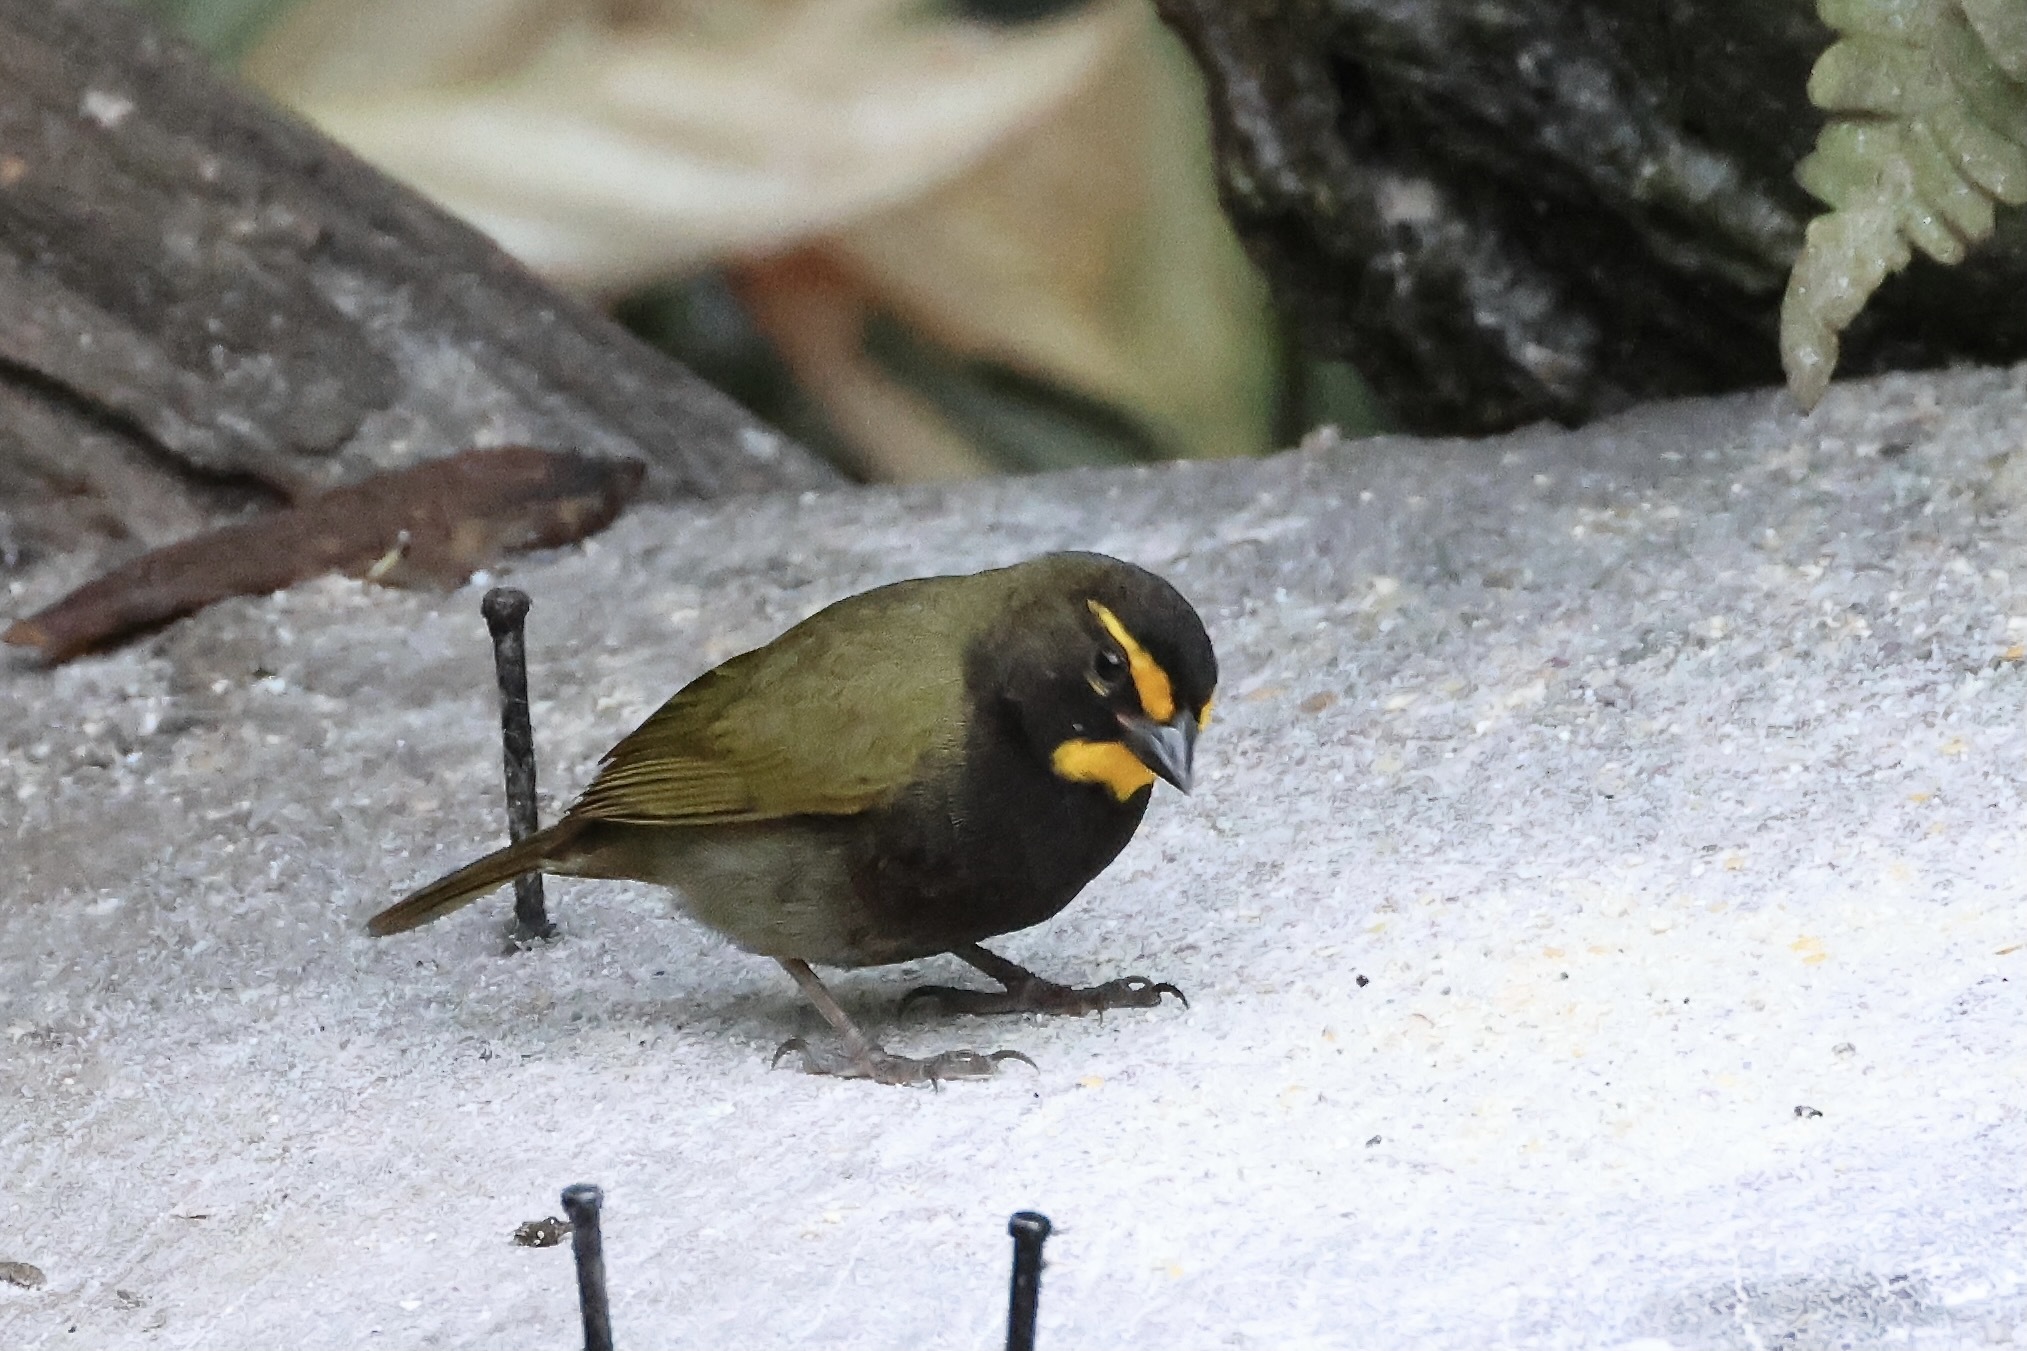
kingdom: Animalia
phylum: Chordata
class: Aves
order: Passeriformes
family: Thraupidae
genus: Tiaris
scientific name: Tiaris olivaceus
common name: Yellow-faced grassquit
